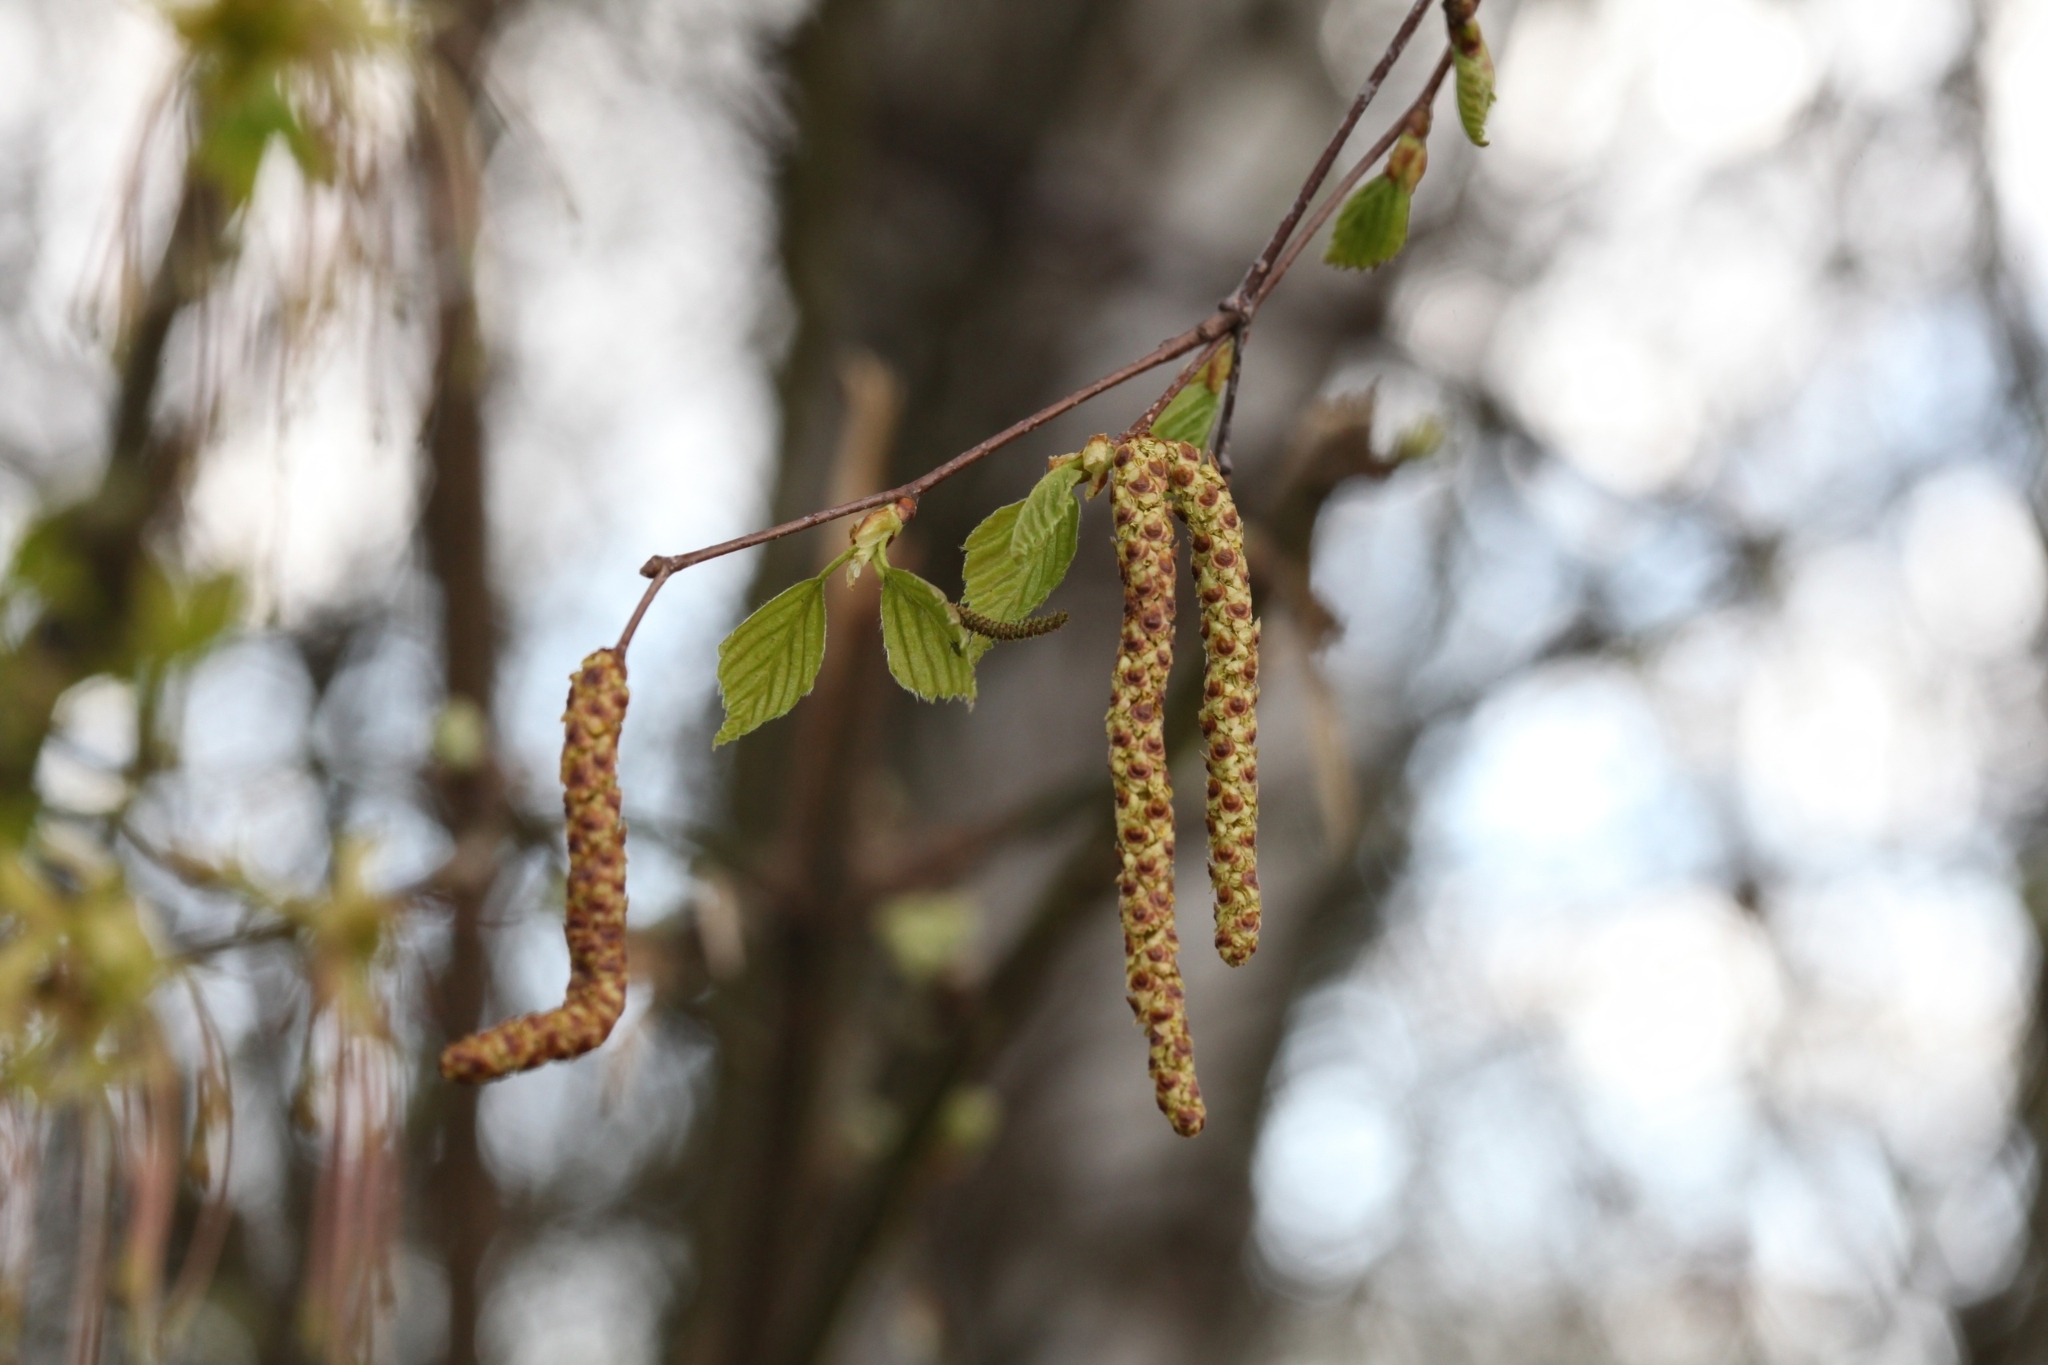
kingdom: Plantae
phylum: Tracheophyta
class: Magnoliopsida
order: Fagales
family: Betulaceae
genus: Betula
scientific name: Betula pendula
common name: Silver birch
